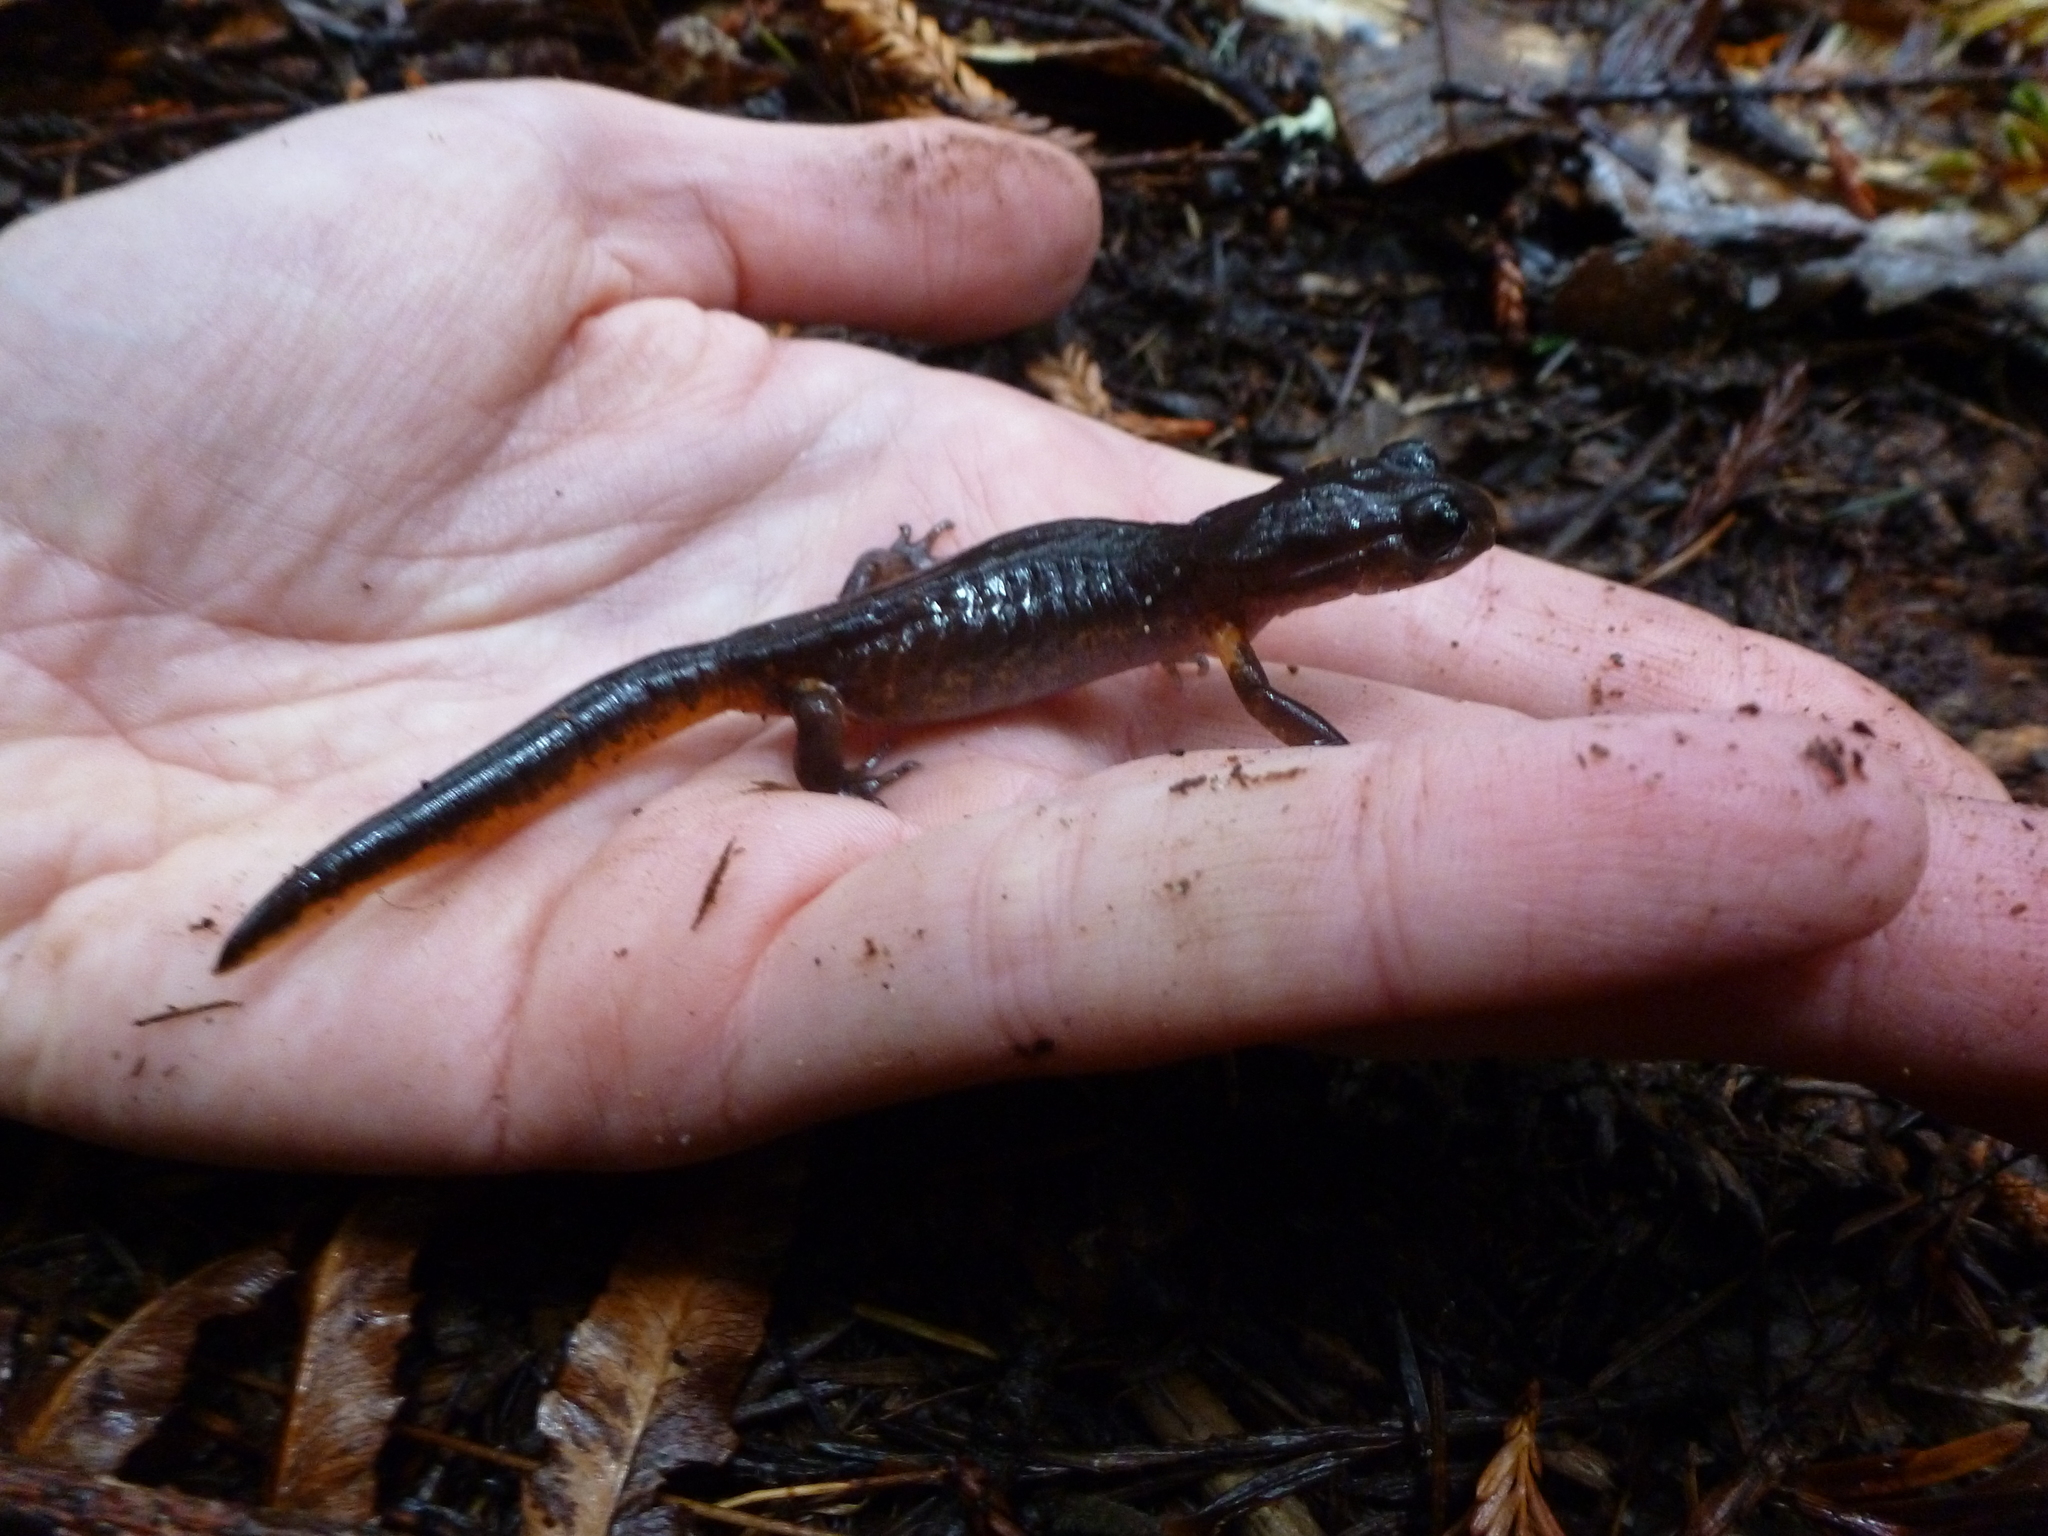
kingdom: Animalia
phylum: Chordata
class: Amphibia
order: Caudata
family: Plethodontidae
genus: Ensatina
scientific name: Ensatina eschscholtzii
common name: Ensatina
